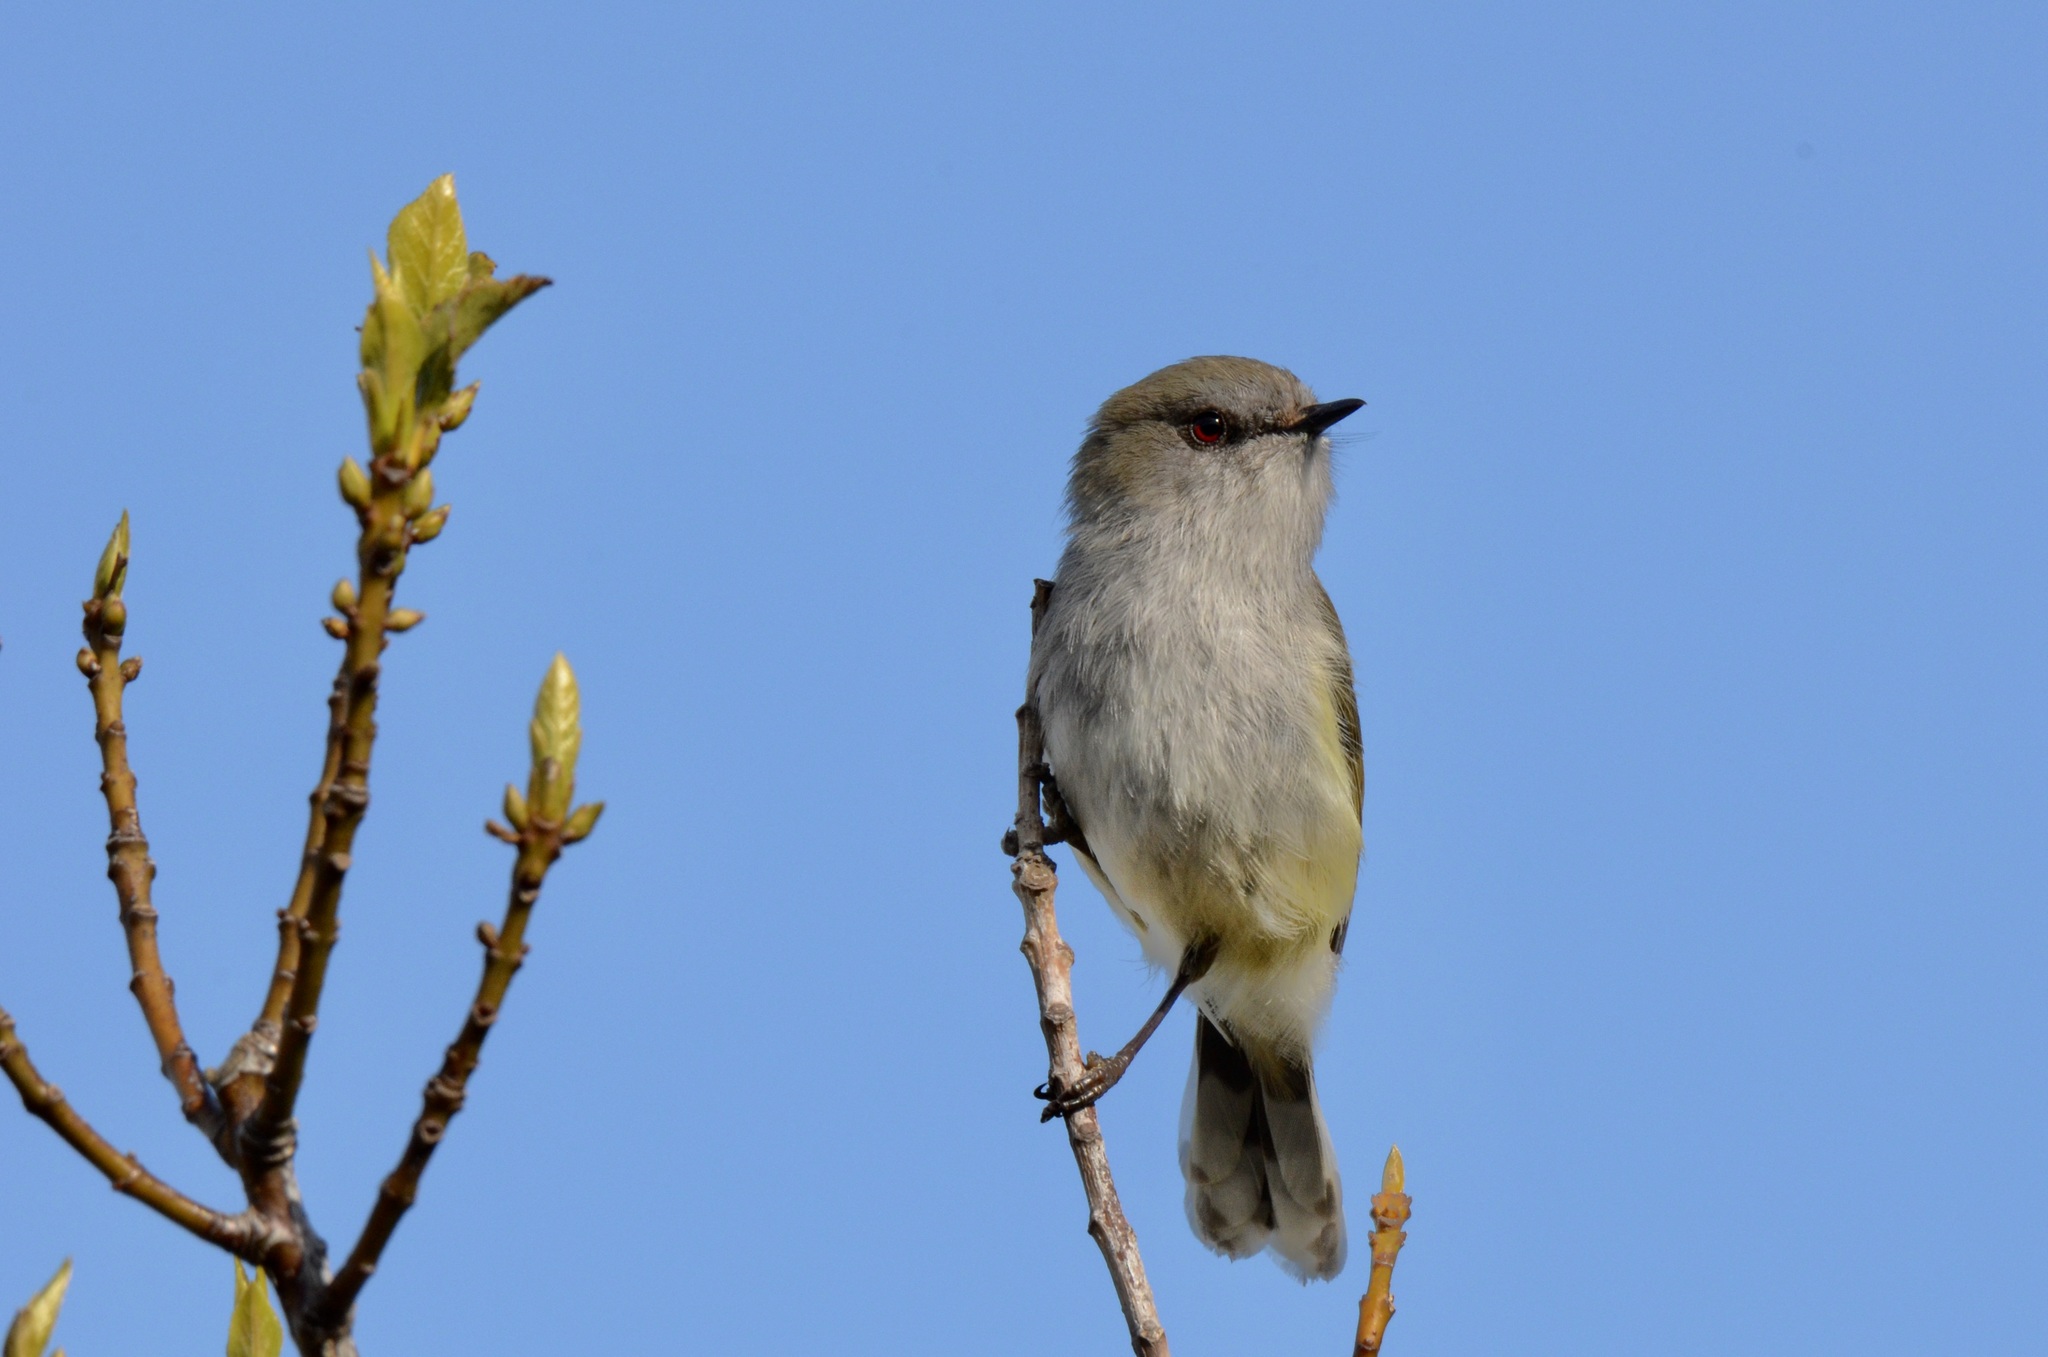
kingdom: Animalia
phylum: Chordata
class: Aves
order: Passeriformes
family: Acanthizidae
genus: Gerygone
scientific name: Gerygone igata
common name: Grey gerygone
